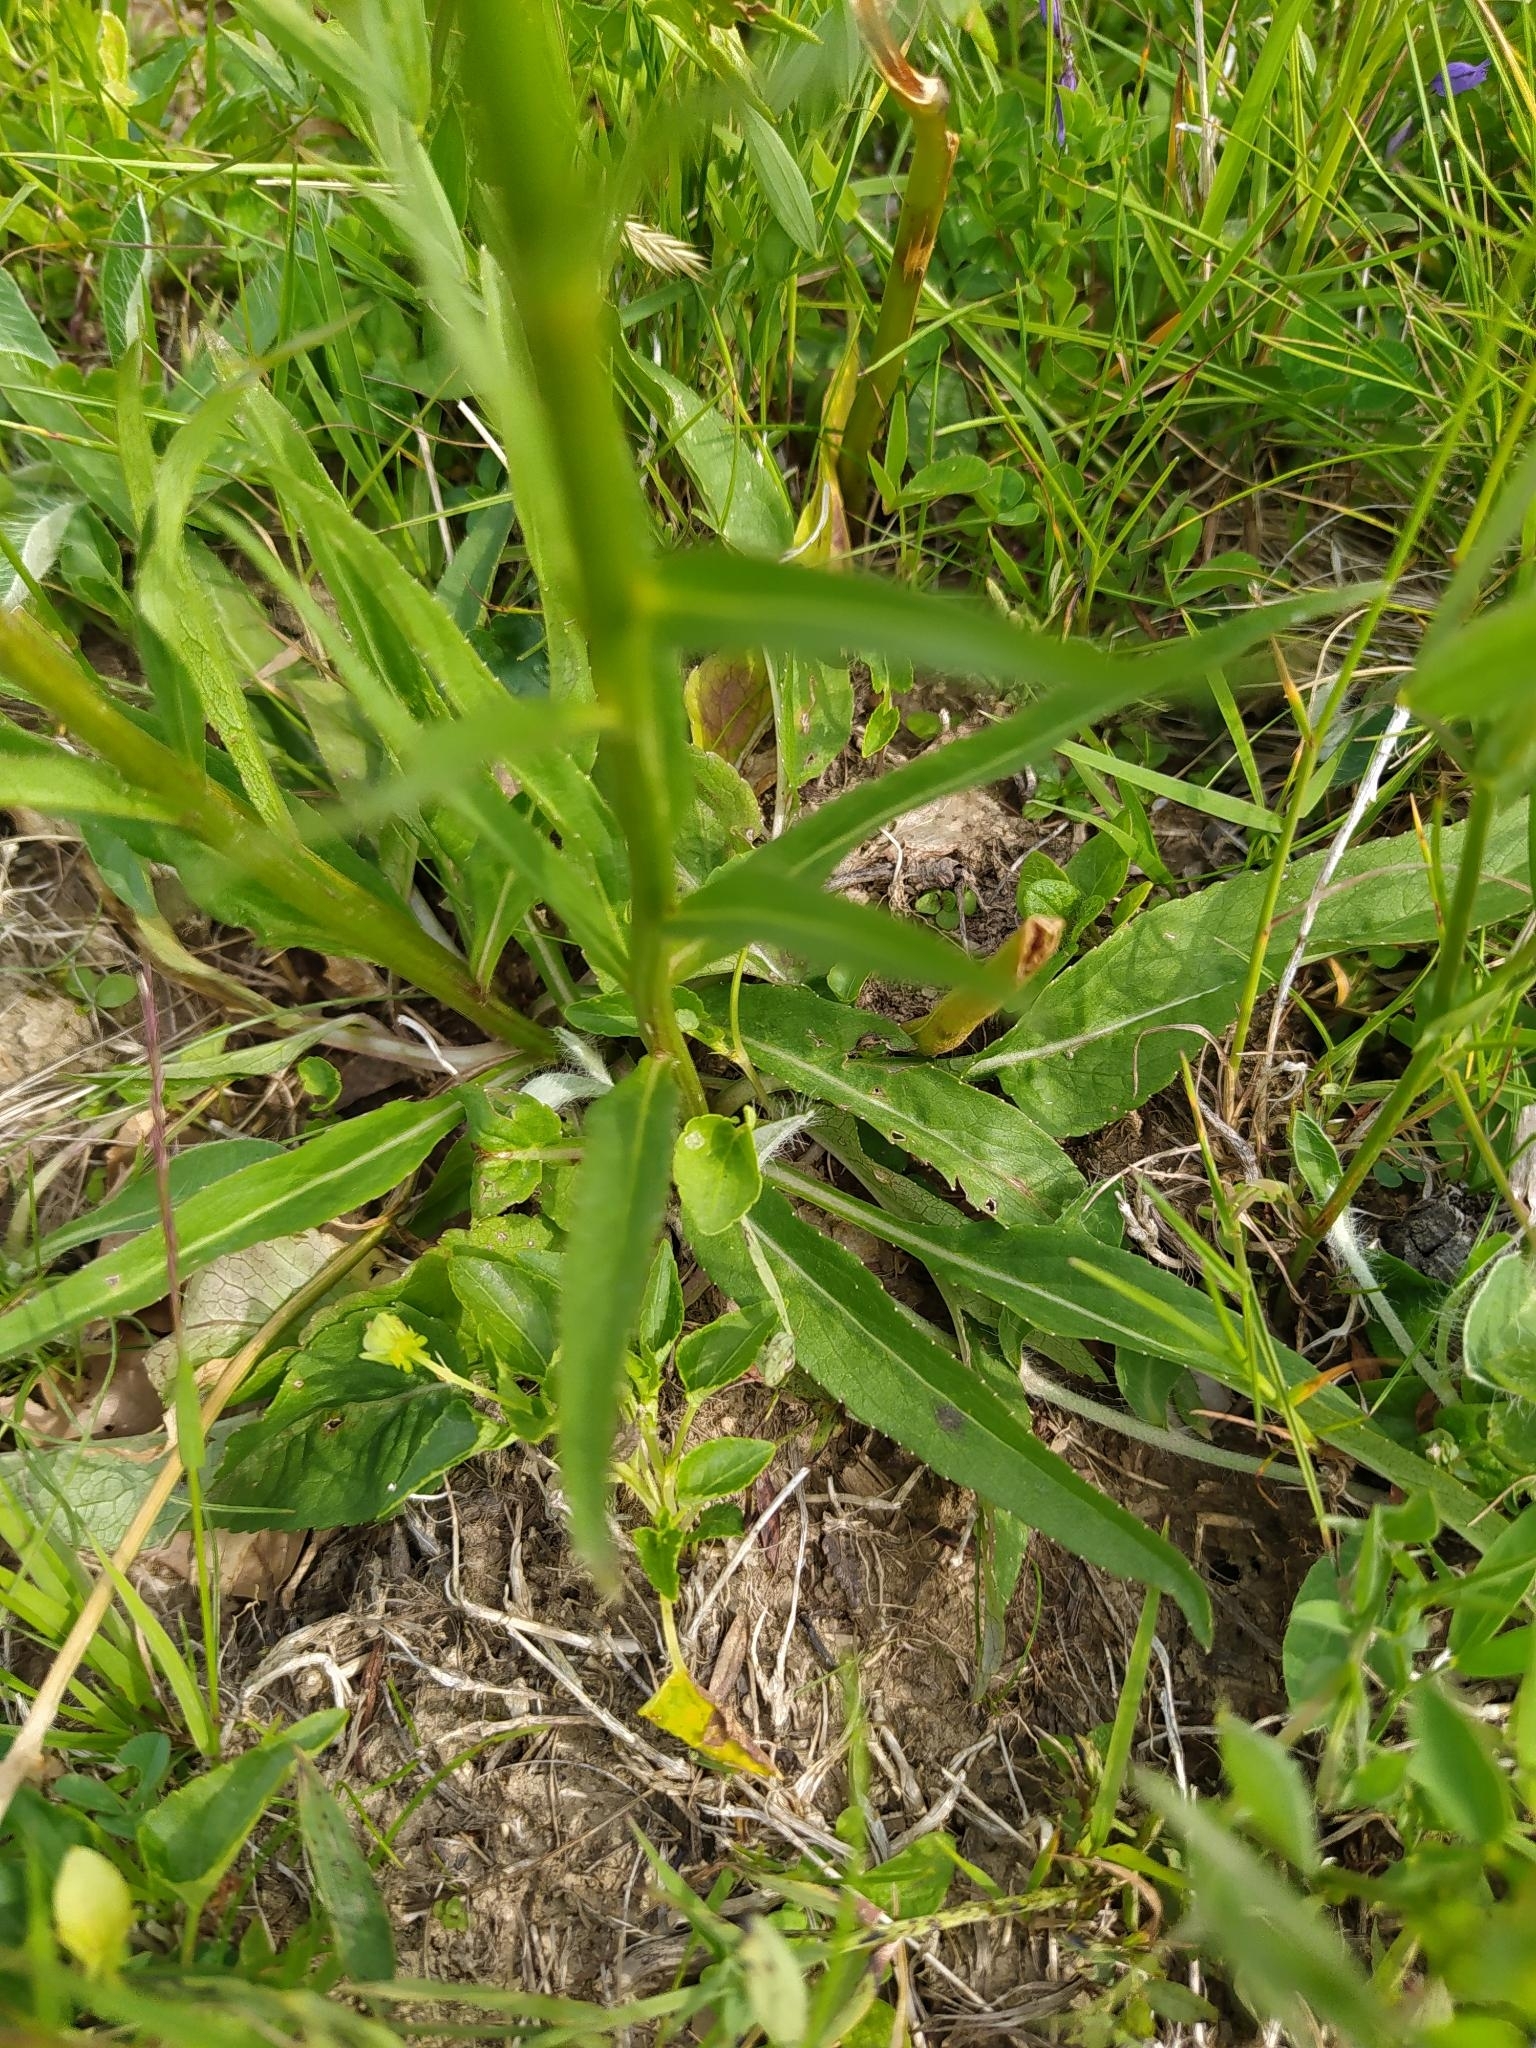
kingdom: Plantae
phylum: Tracheophyta
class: Magnoliopsida
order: Asterales
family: Campanulaceae
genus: Phyteuma
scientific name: Phyteuma persicifolium
